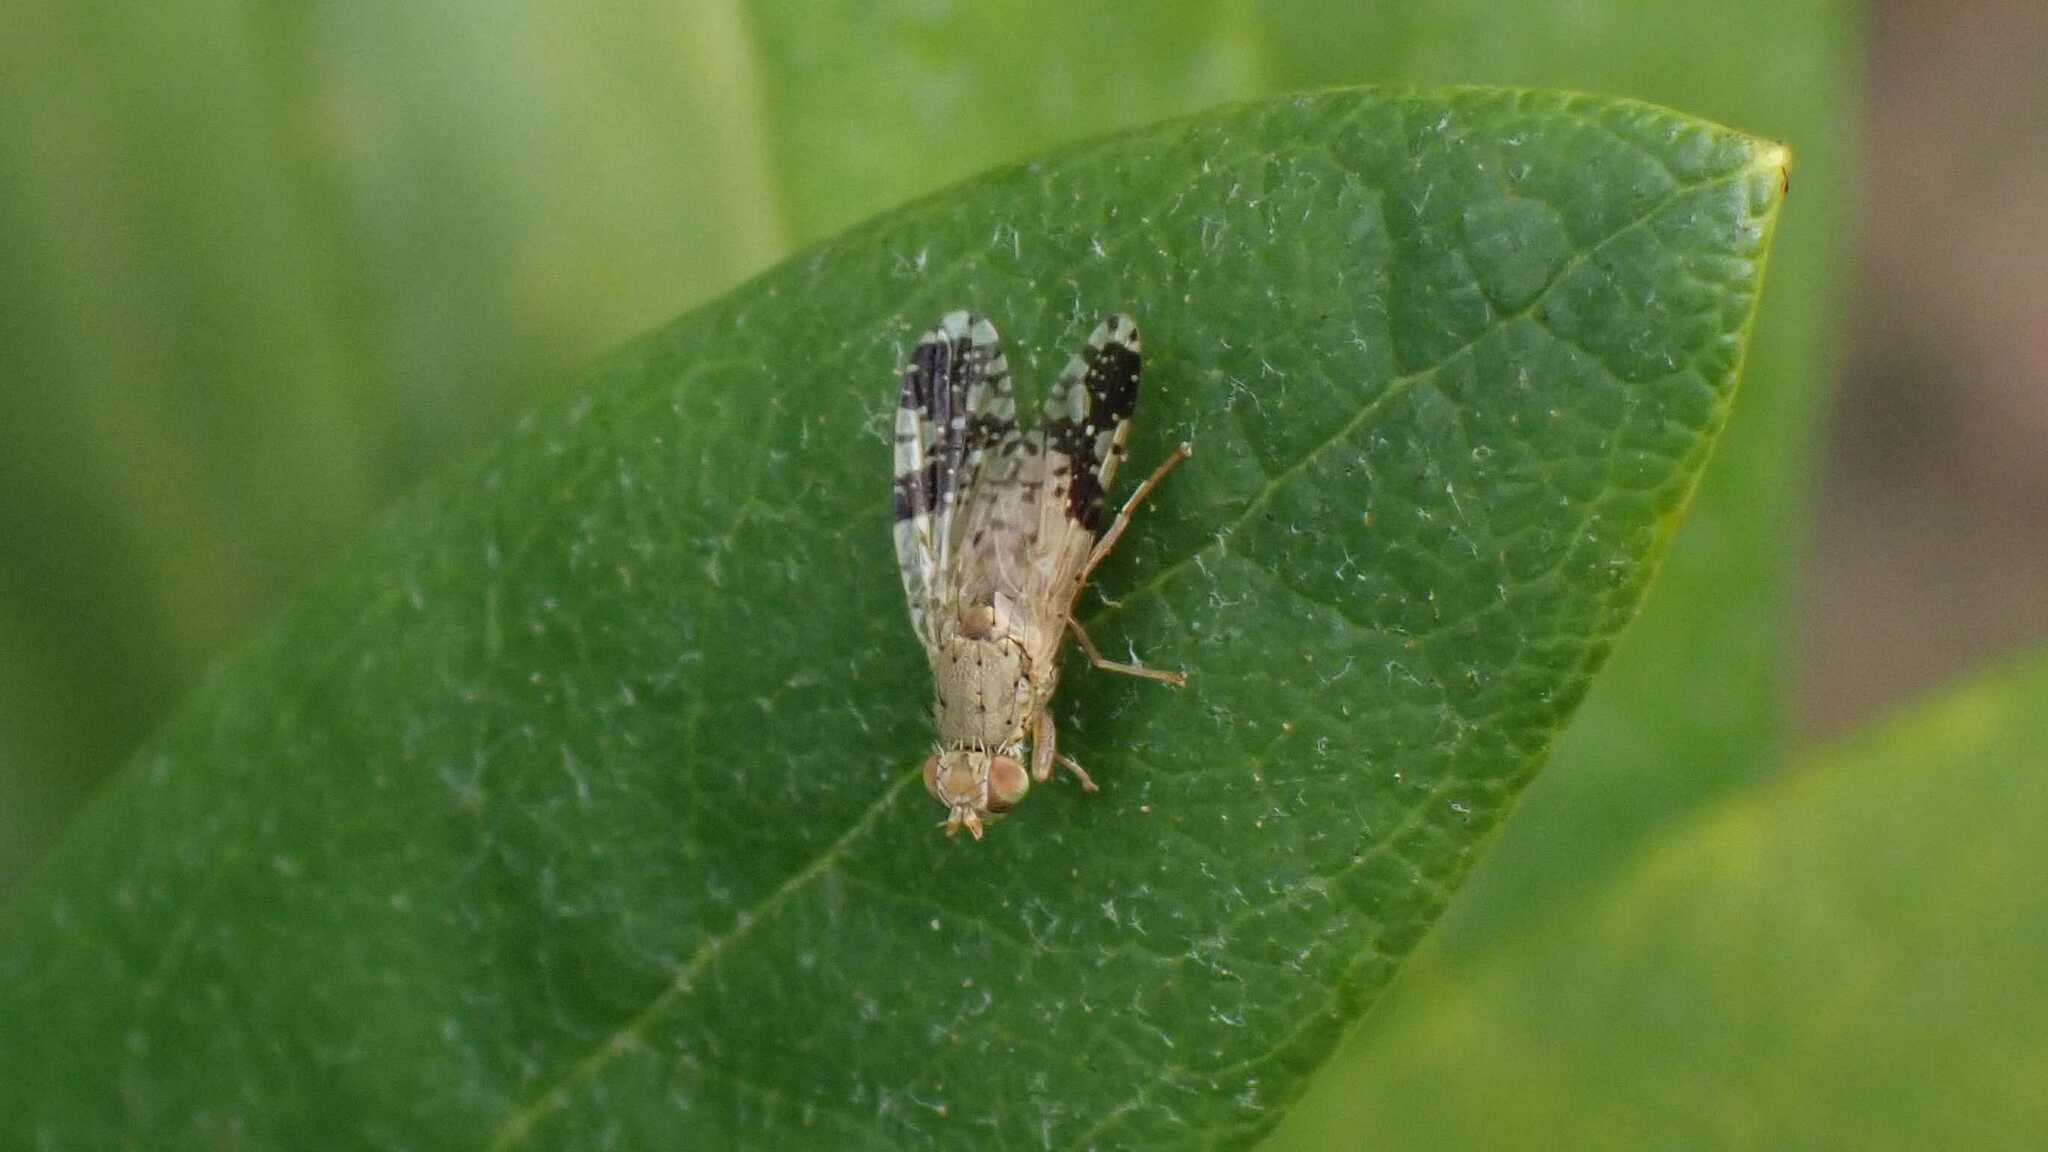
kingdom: Animalia
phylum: Arthropoda
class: Insecta
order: Diptera
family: Tephritidae
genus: Tephritis
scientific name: Tephritis bardanae
